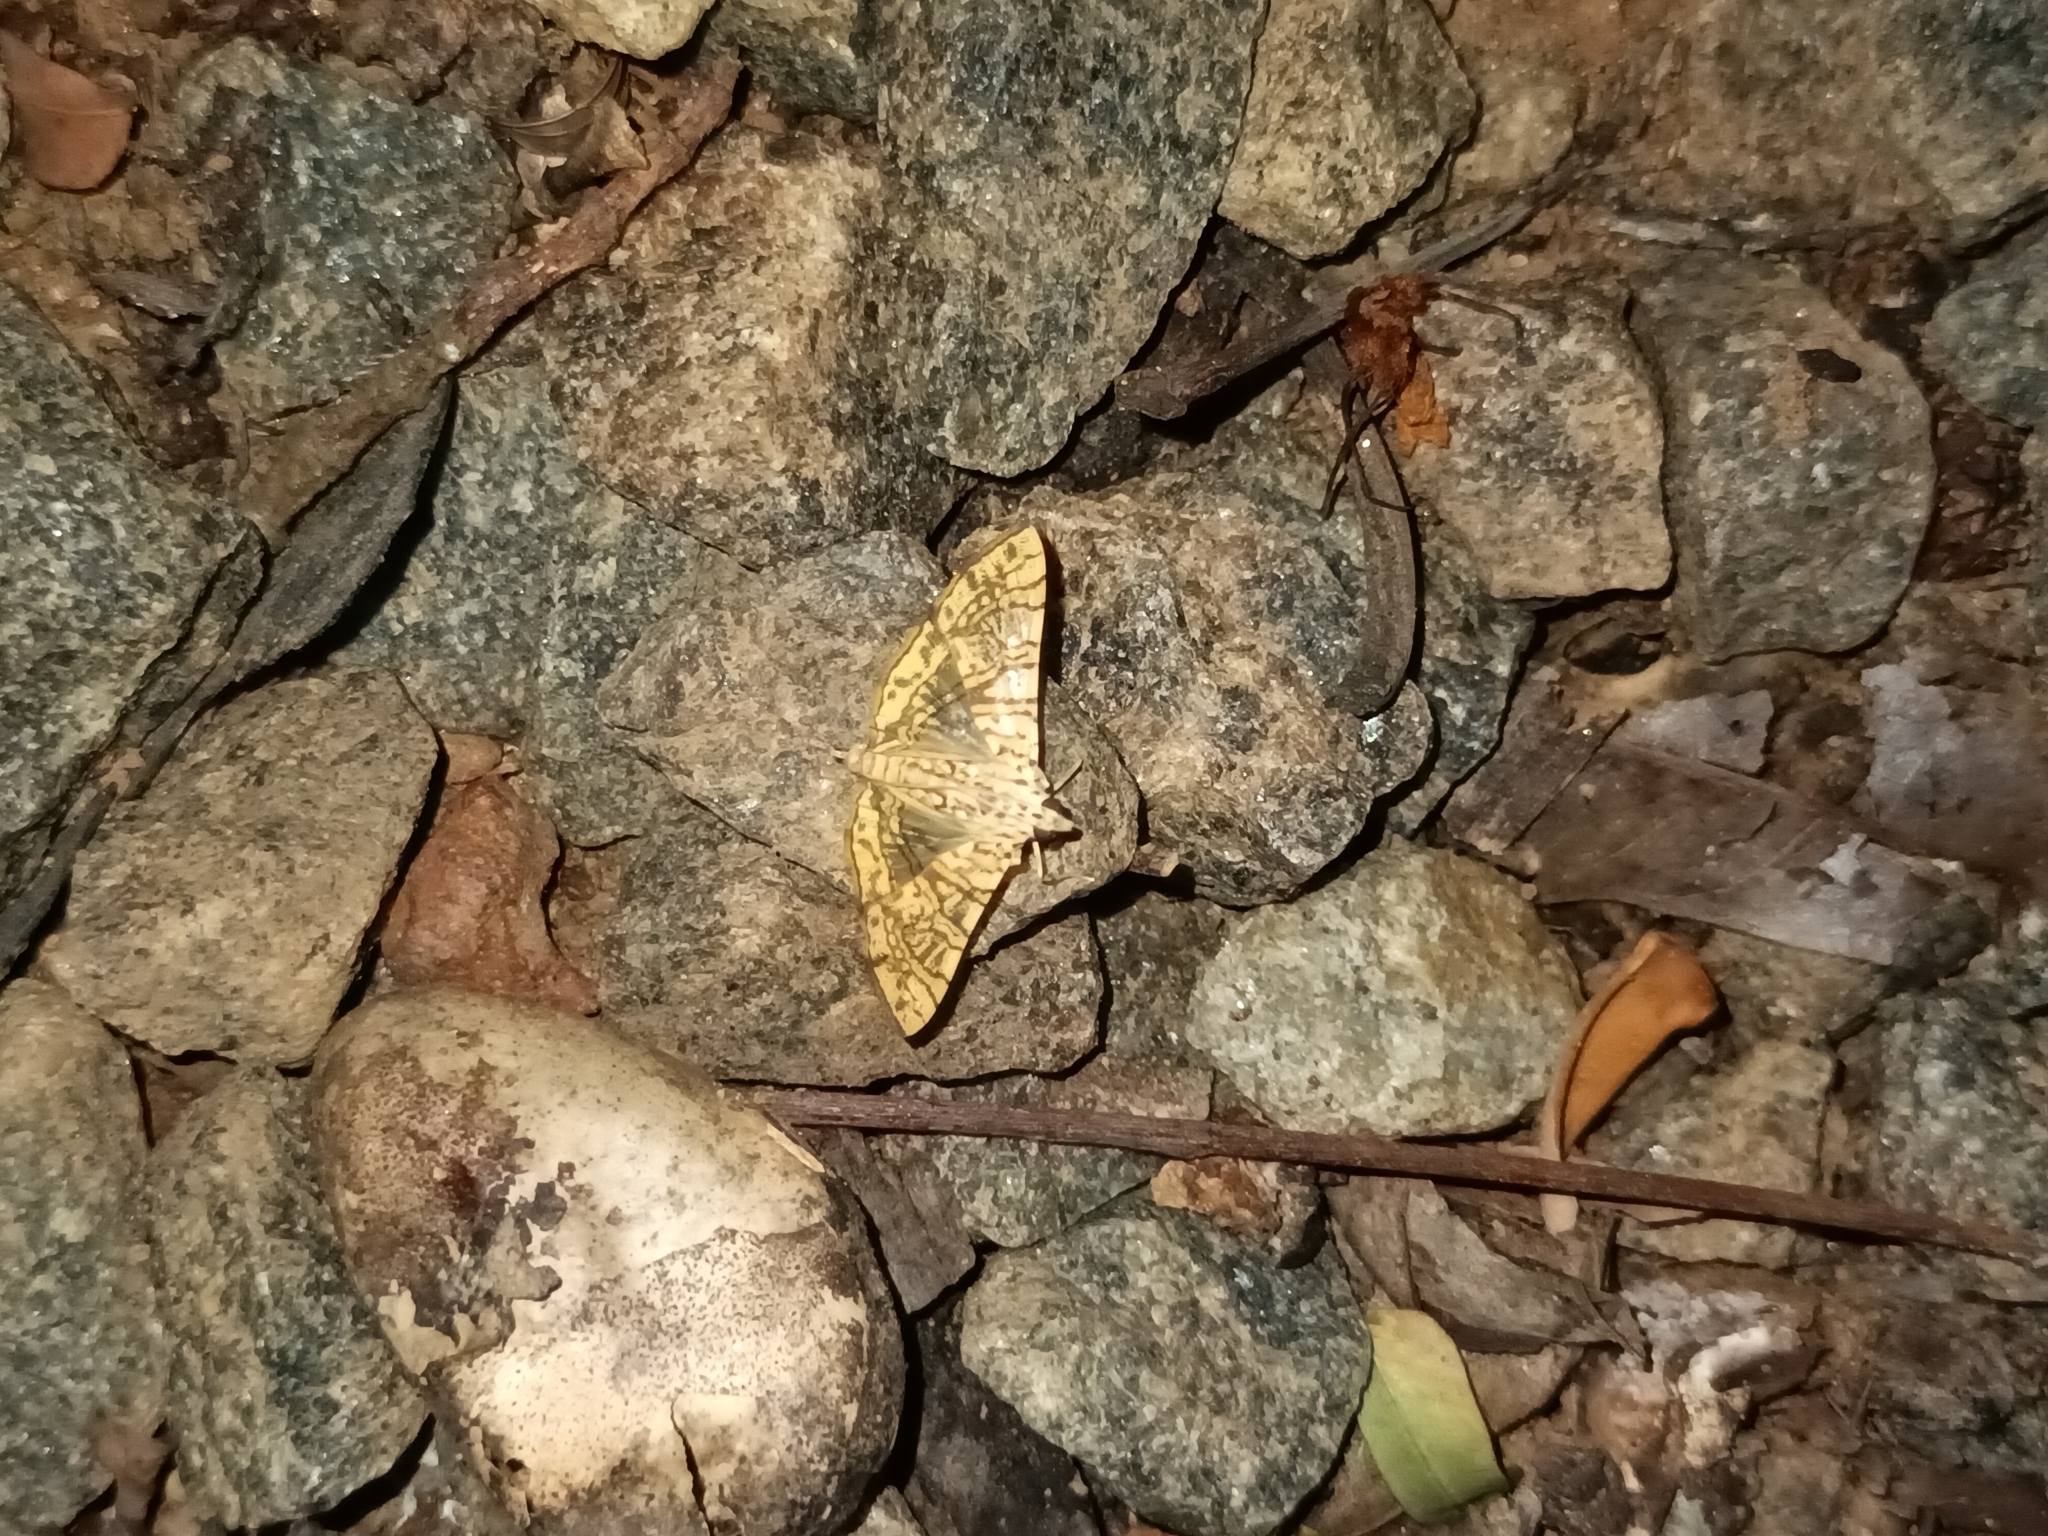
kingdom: Animalia
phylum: Arthropoda
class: Insecta
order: Lepidoptera
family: Crambidae
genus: Glyphodes
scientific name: Glyphodes caesalis
